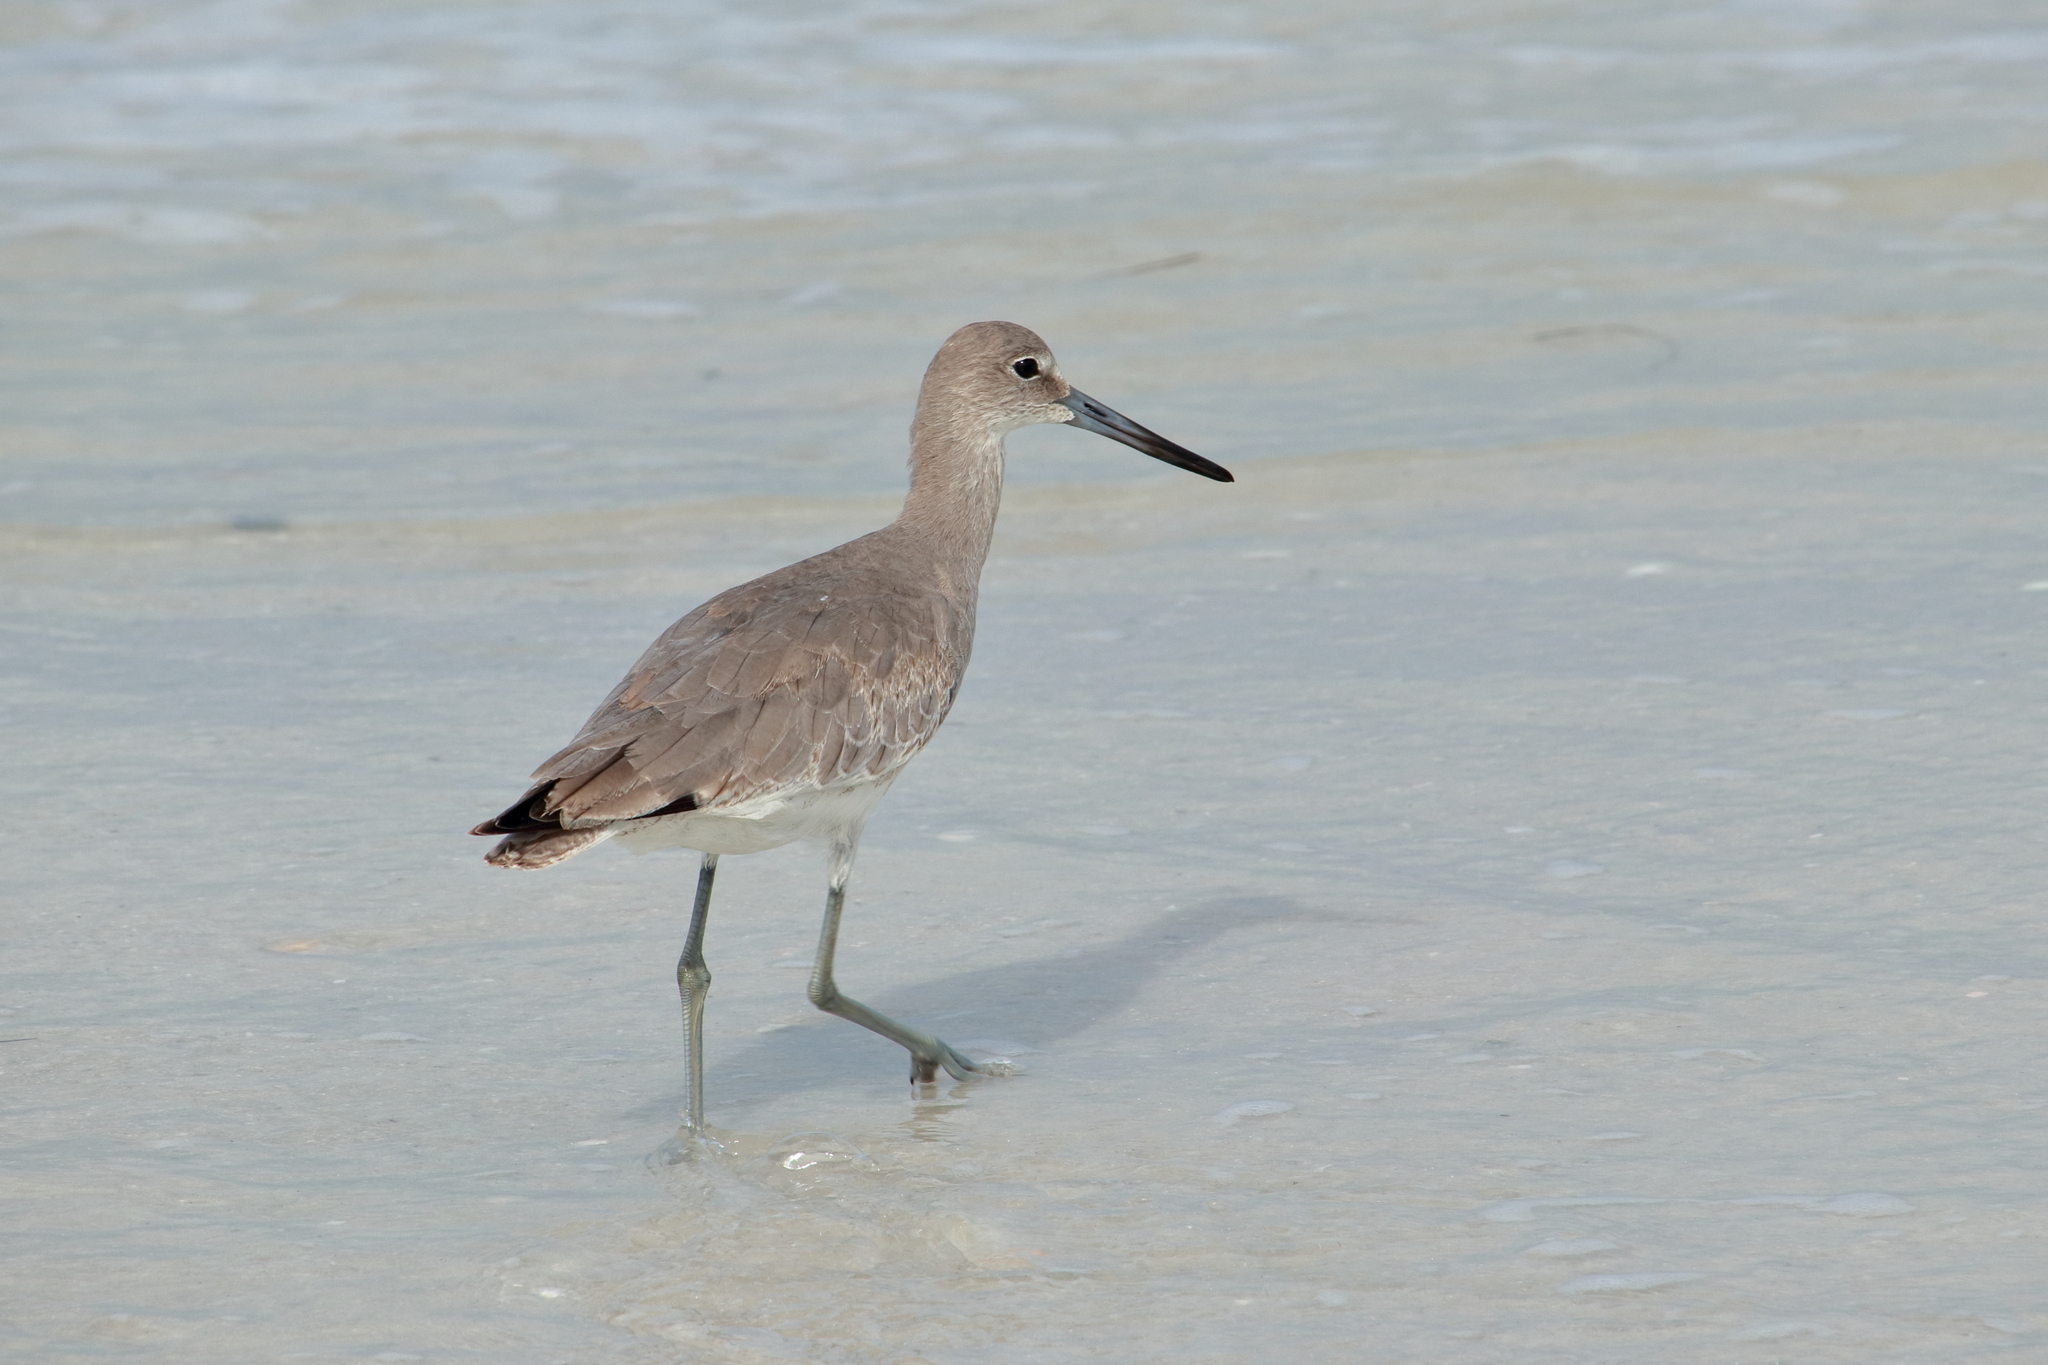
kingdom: Animalia
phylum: Chordata
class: Aves
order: Charadriiformes
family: Scolopacidae
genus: Tringa
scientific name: Tringa semipalmata
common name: Willet
